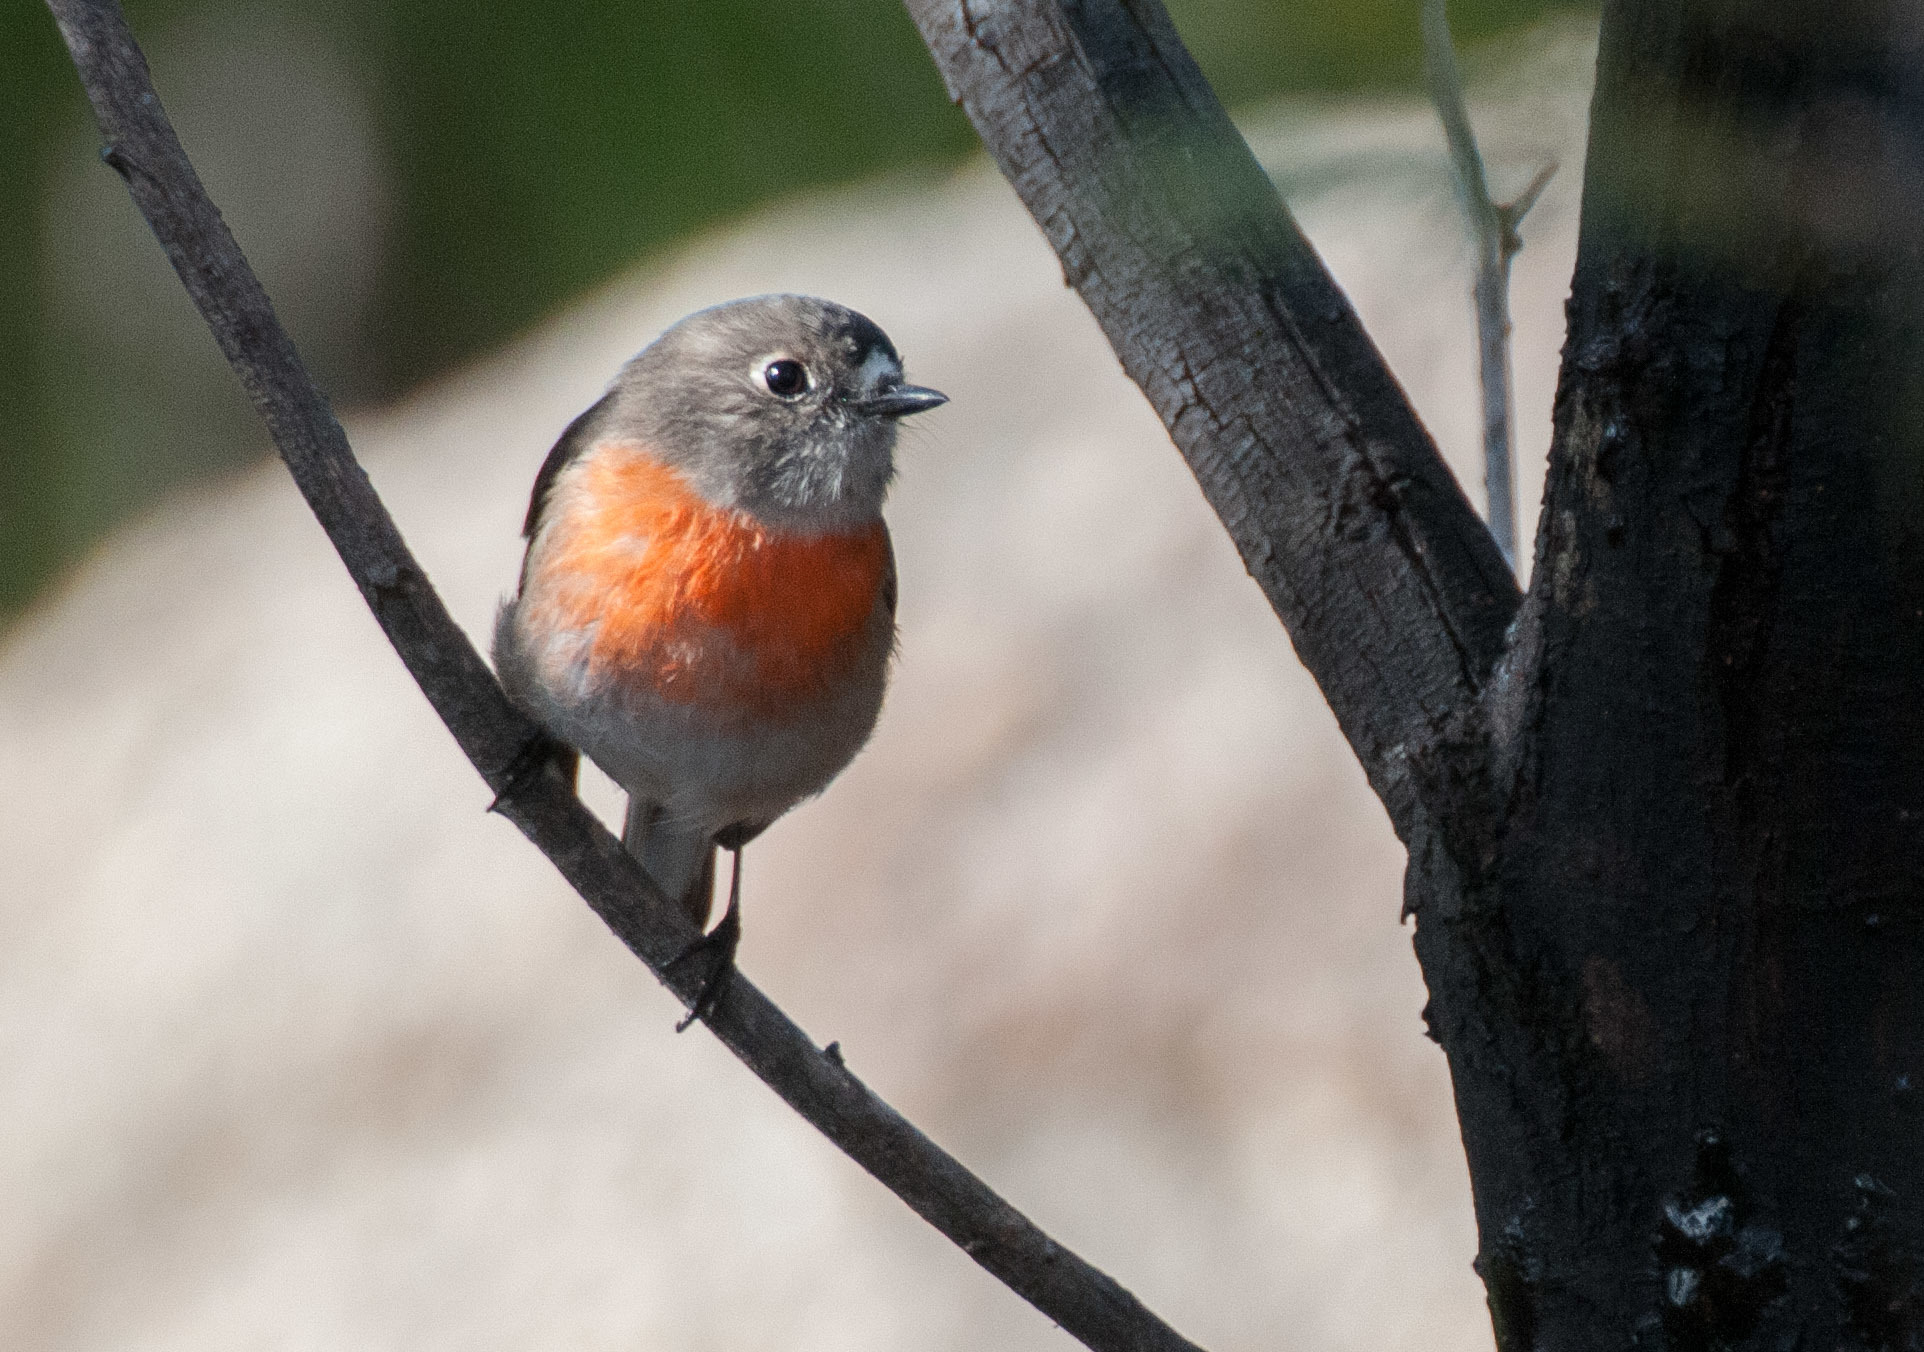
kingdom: Animalia
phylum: Chordata
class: Aves
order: Passeriformes
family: Petroicidae
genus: Petroica
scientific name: Petroica boodang
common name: Scarlet robin
